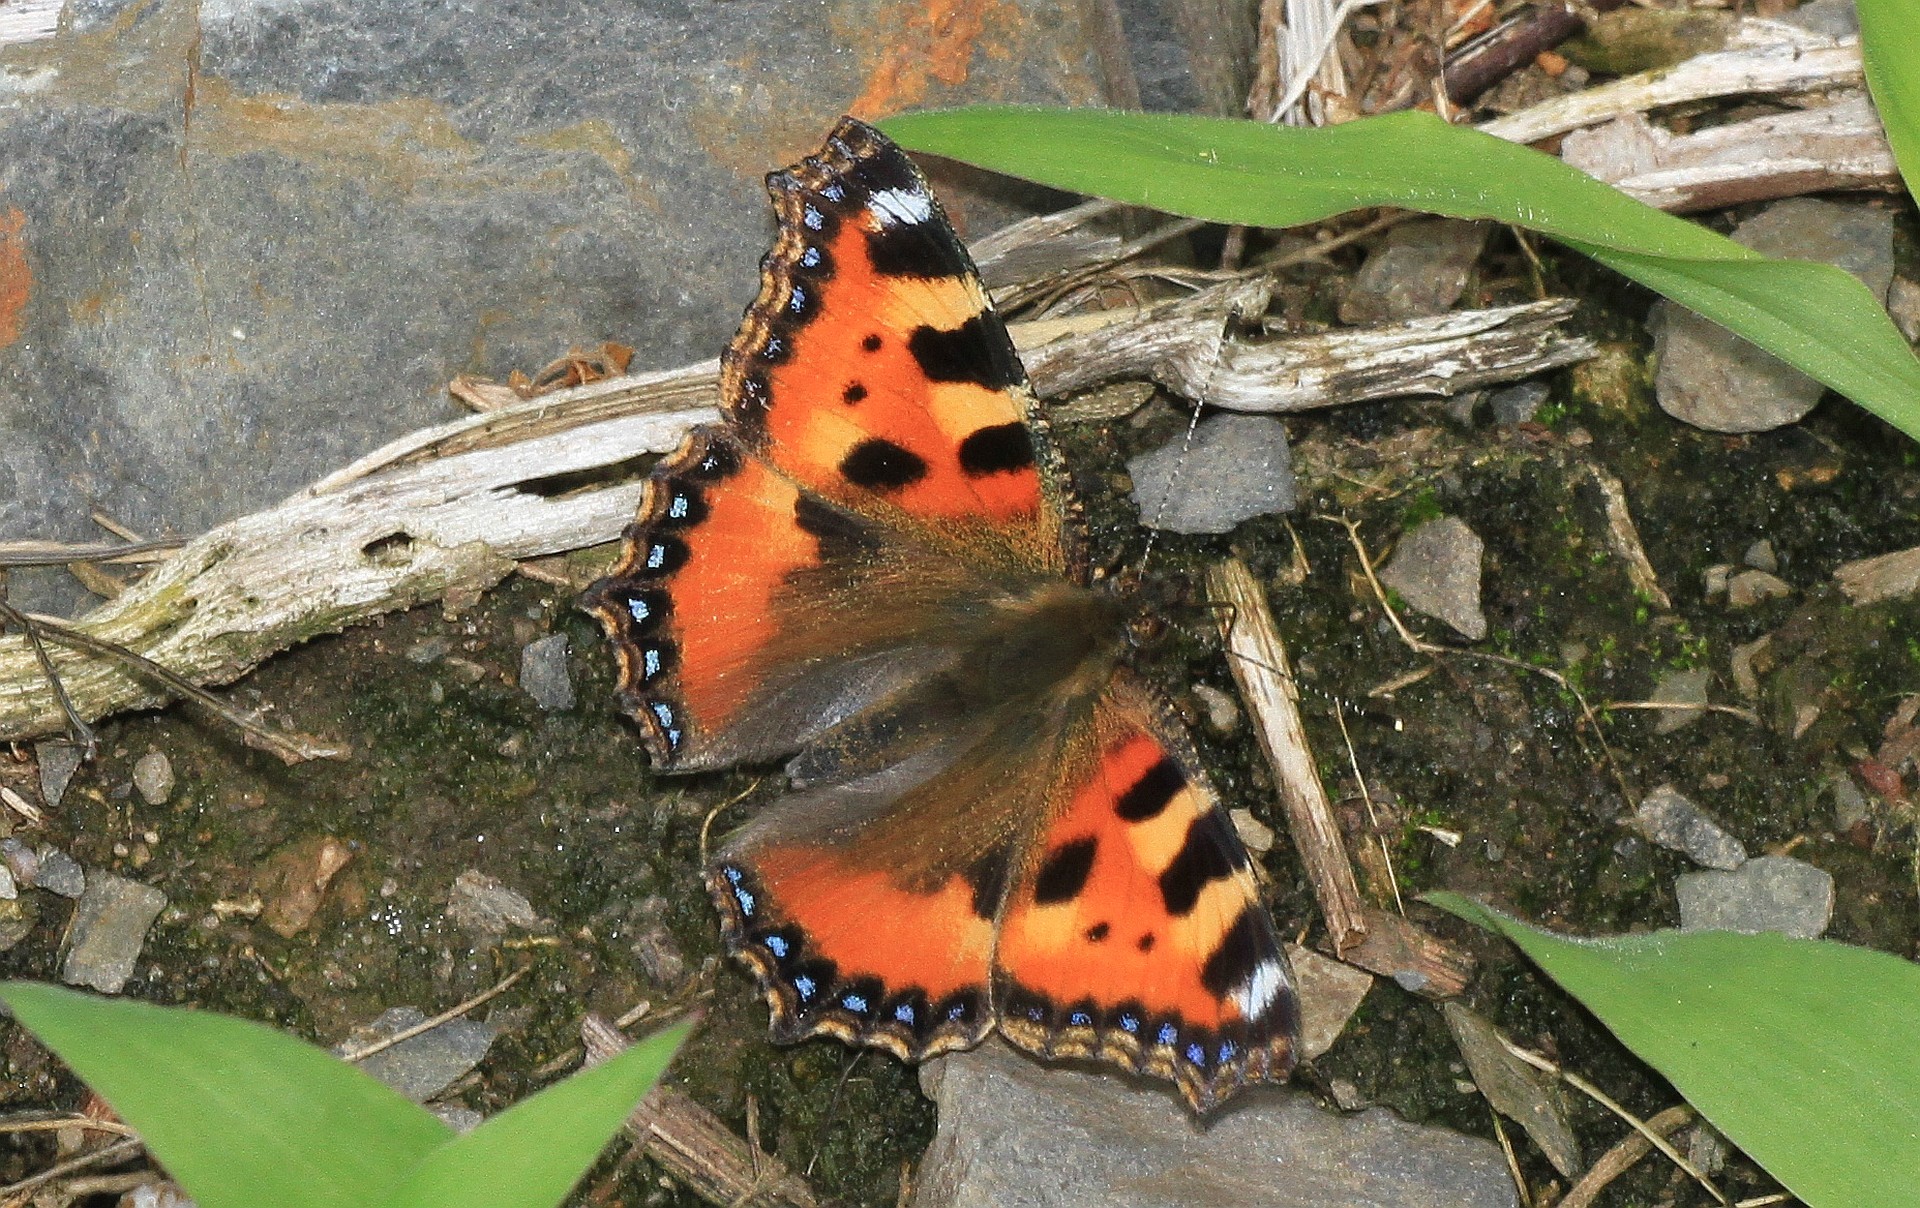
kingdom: Animalia
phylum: Arthropoda
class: Insecta
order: Lepidoptera
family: Nymphalidae
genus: Aglais
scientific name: Aglais urticae
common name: Small tortoiseshell
